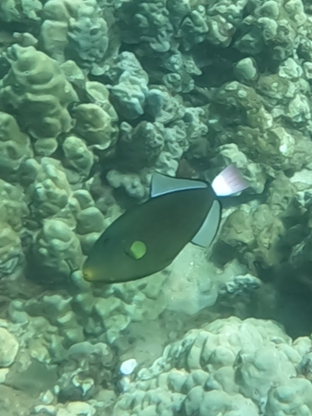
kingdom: Animalia
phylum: Chordata
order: Tetraodontiformes
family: Balistidae
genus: Melichthys
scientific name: Melichthys vidua
